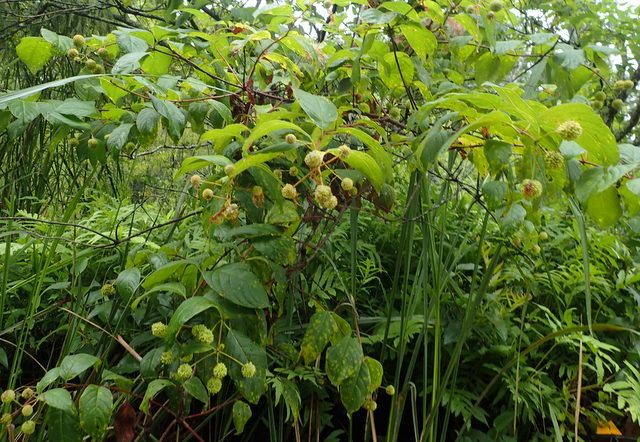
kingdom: Plantae
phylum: Tracheophyta
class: Magnoliopsida
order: Gentianales
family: Rubiaceae
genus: Cephalanthus
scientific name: Cephalanthus occidentalis
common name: Button-willow
